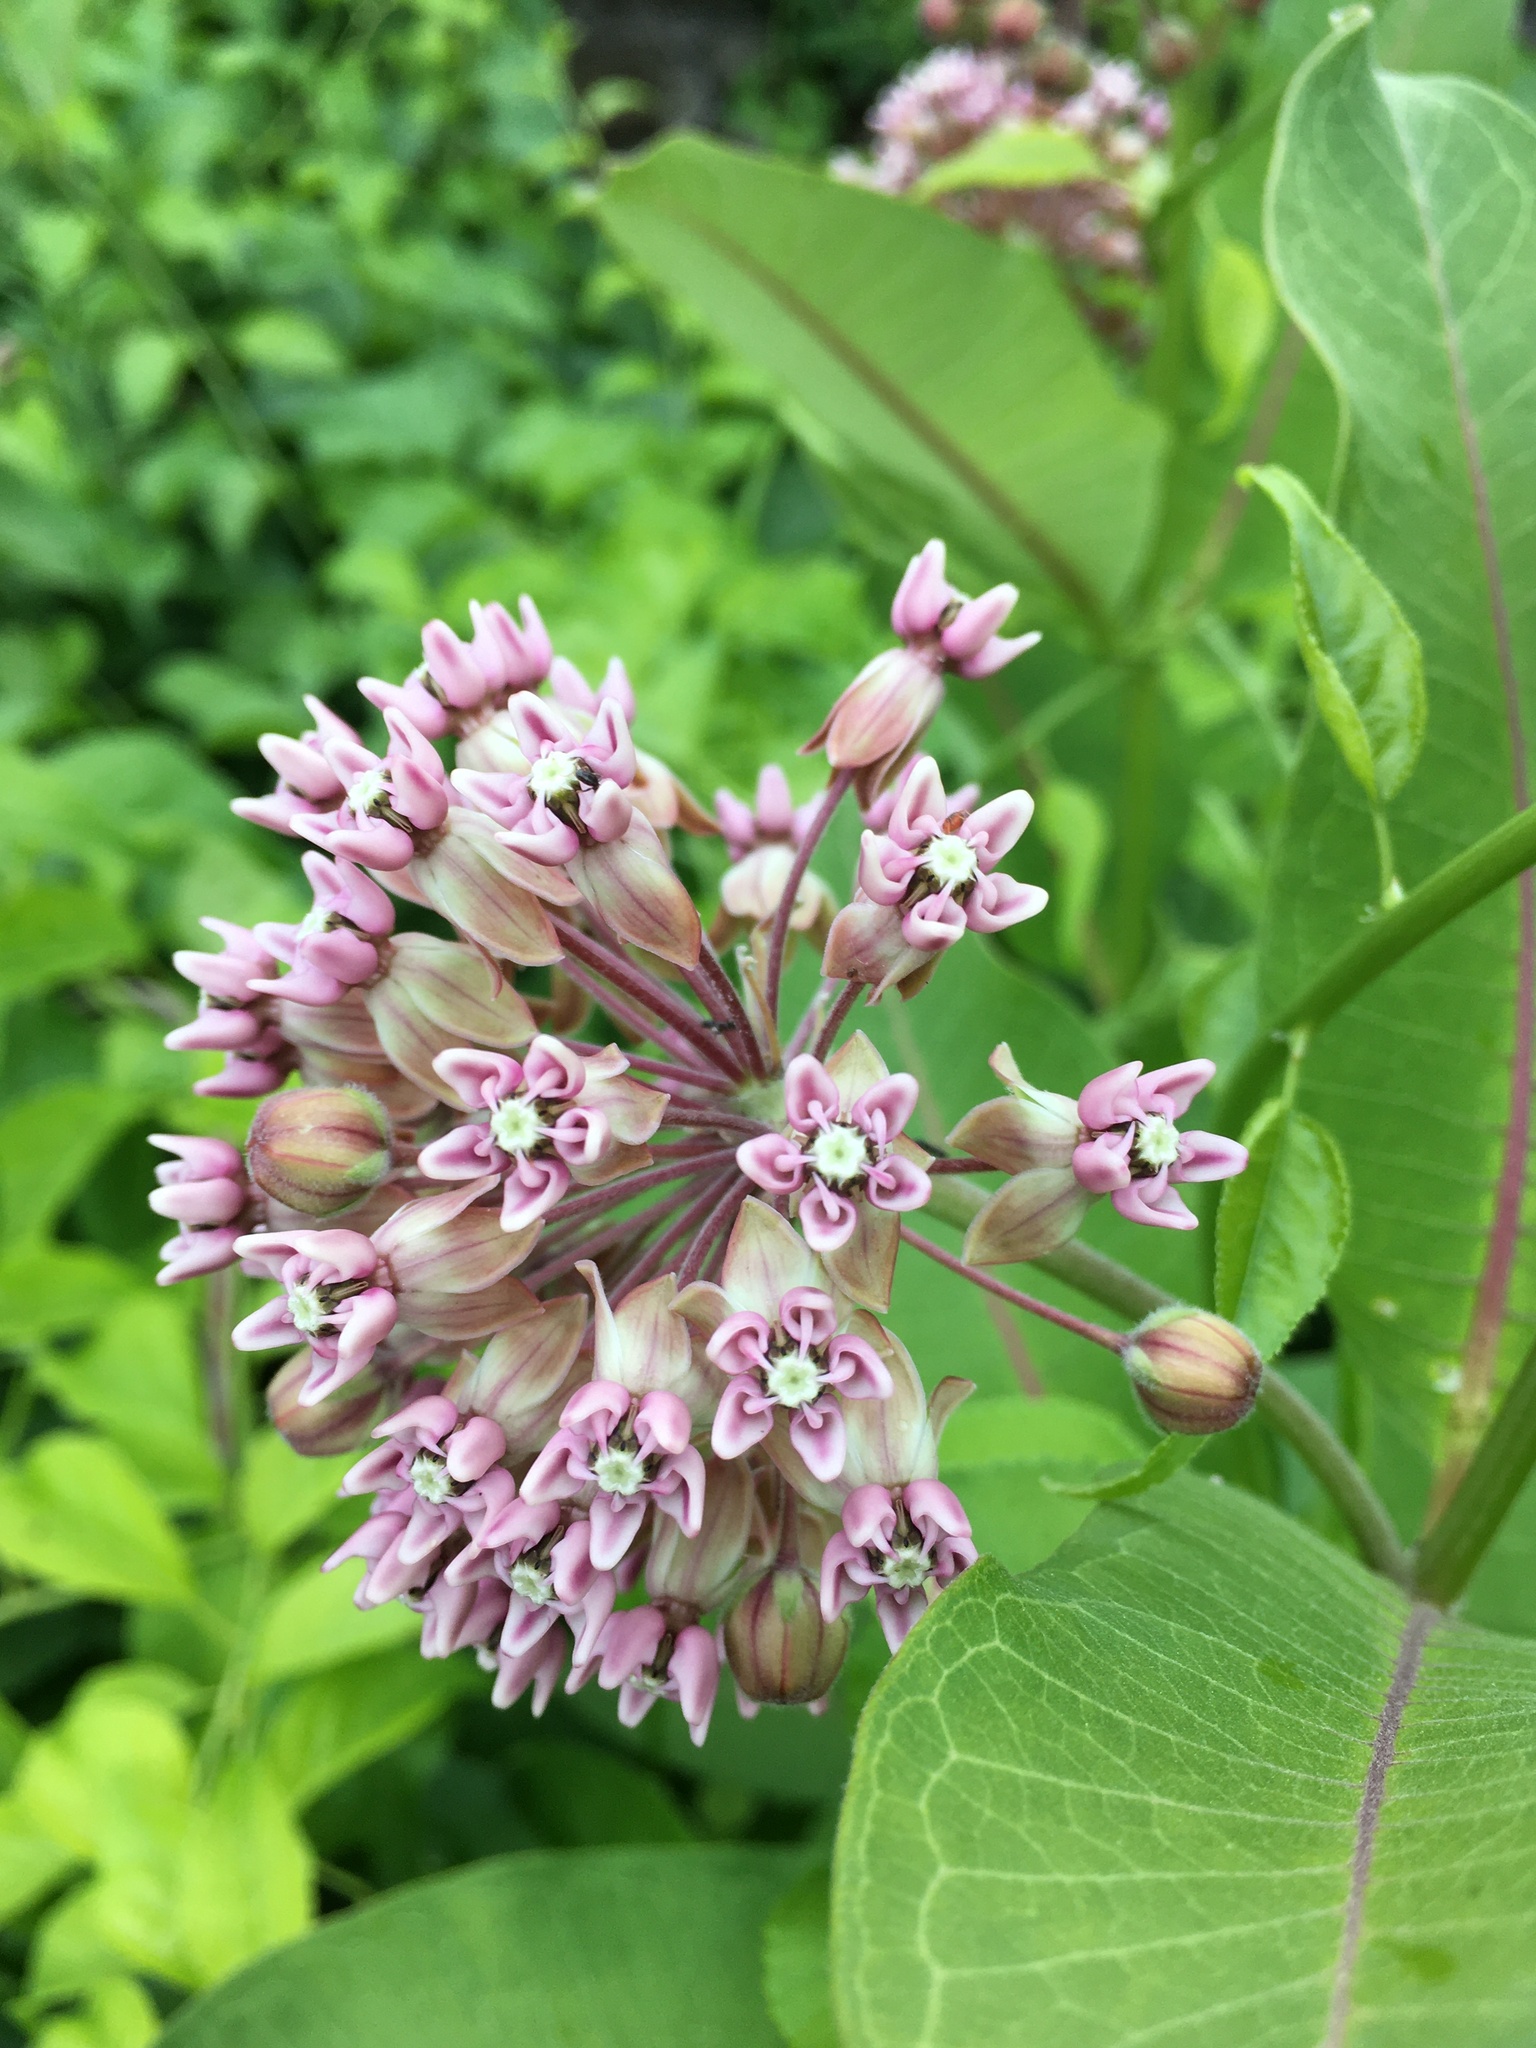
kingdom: Plantae
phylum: Tracheophyta
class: Magnoliopsida
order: Gentianales
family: Apocynaceae
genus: Asclepias
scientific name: Asclepias syriaca
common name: Common milkweed
